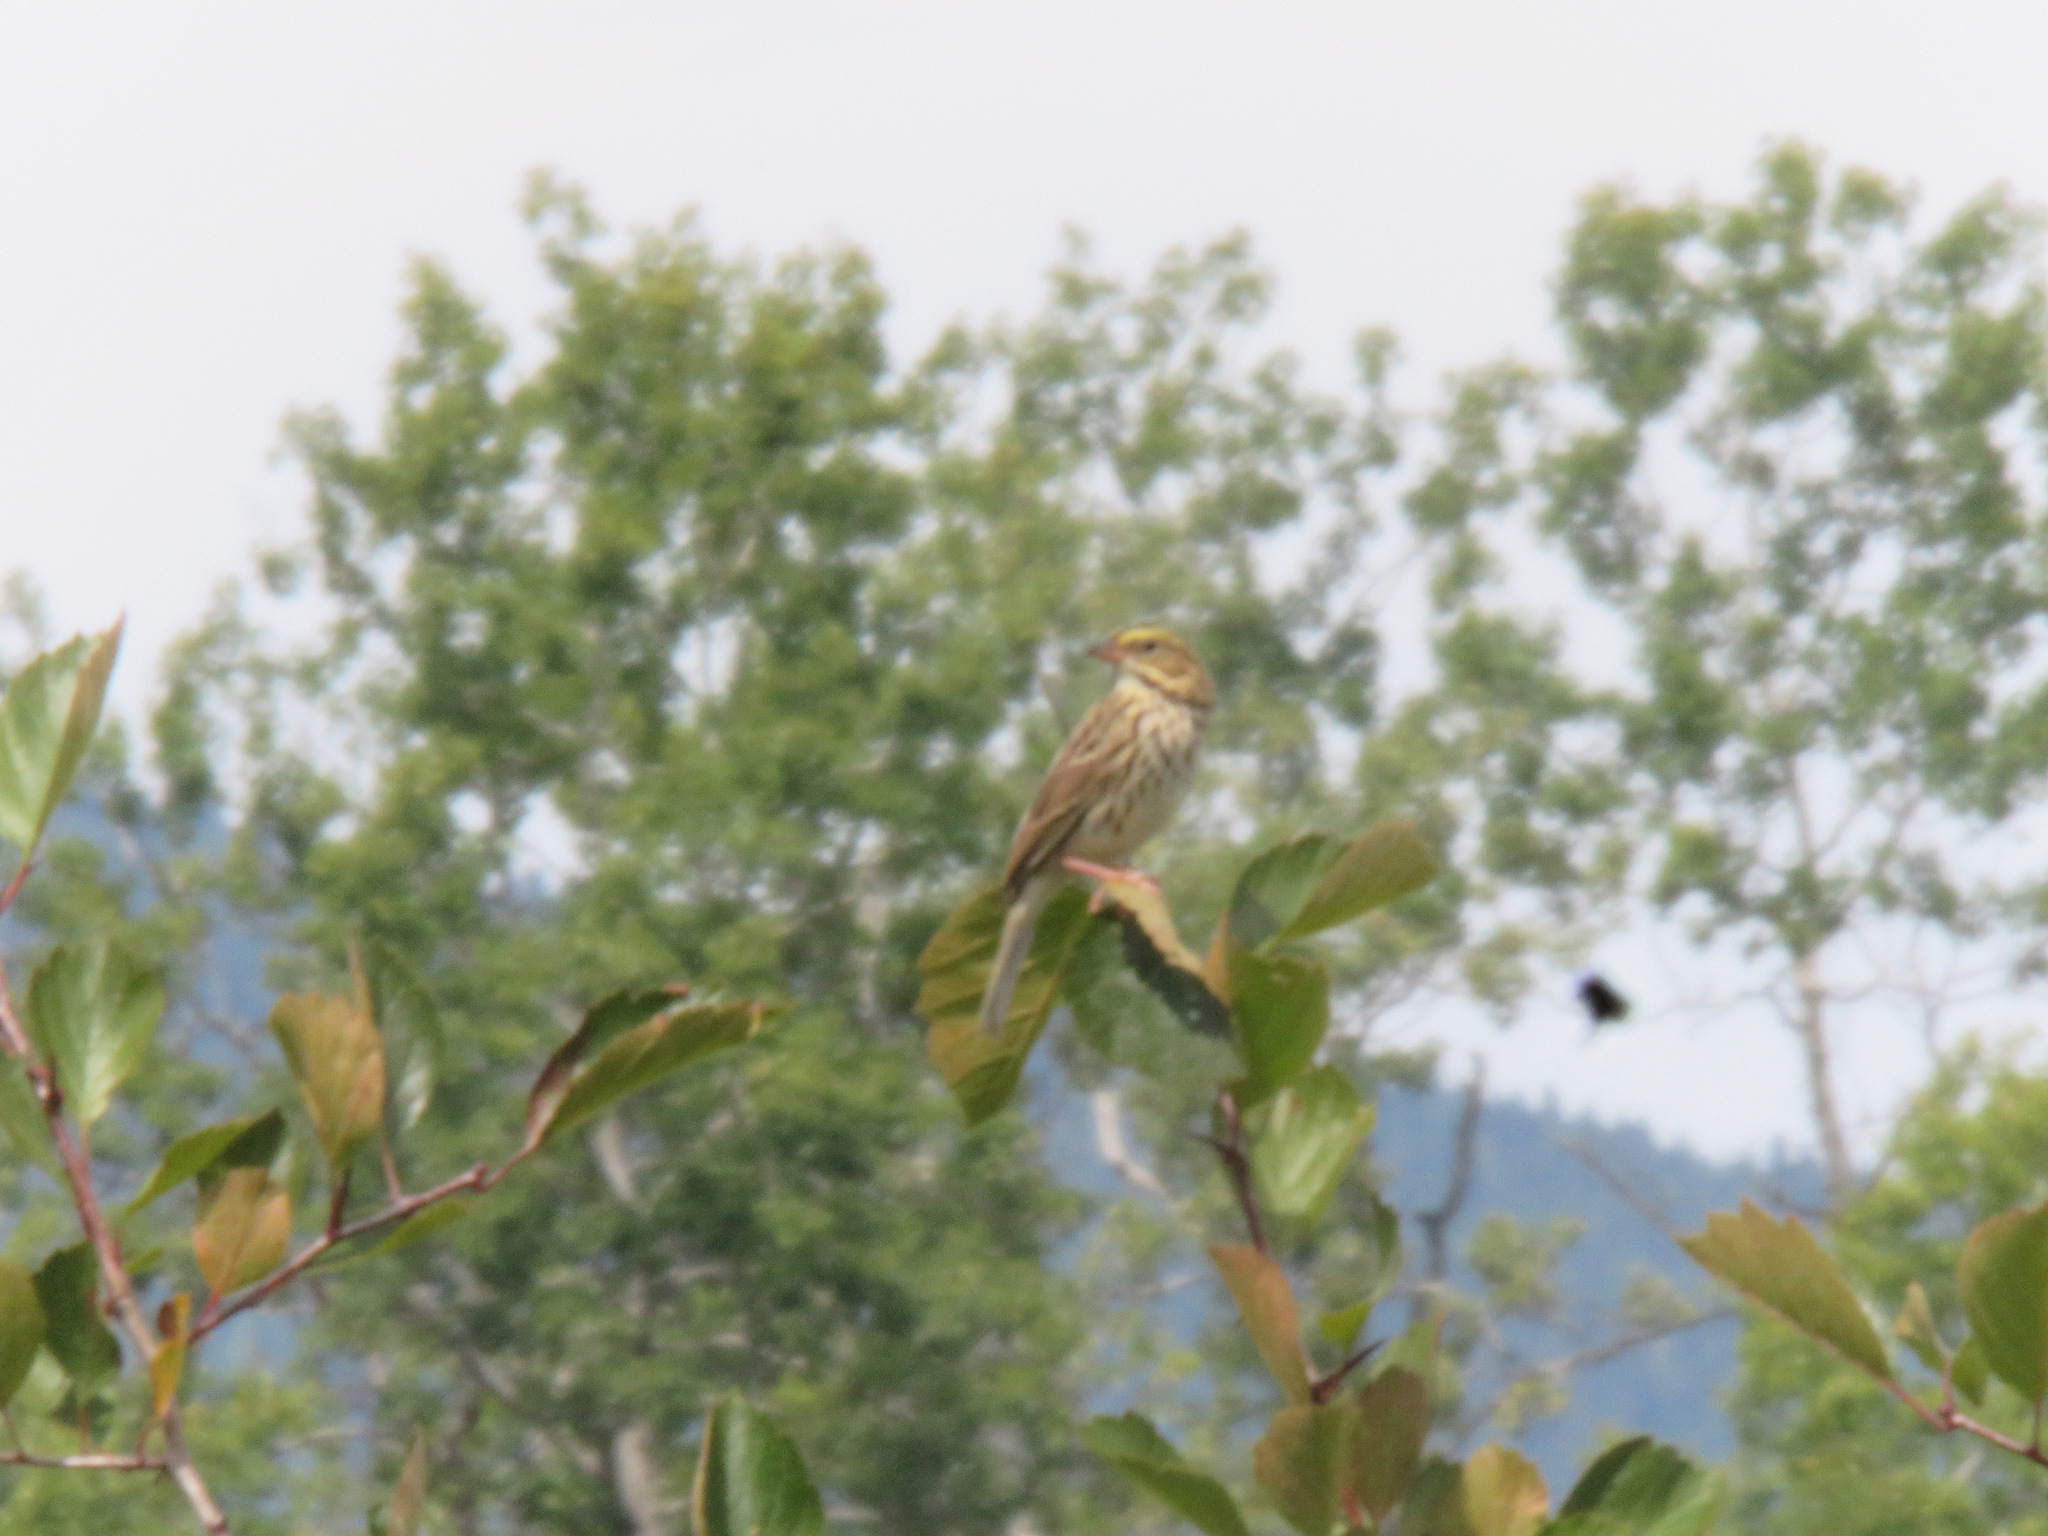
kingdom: Animalia
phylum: Chordata
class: Aves
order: Passeriformes
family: Passerellidae
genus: Passerculus
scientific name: Passerculus sandwichensis
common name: Savannah sparrow
